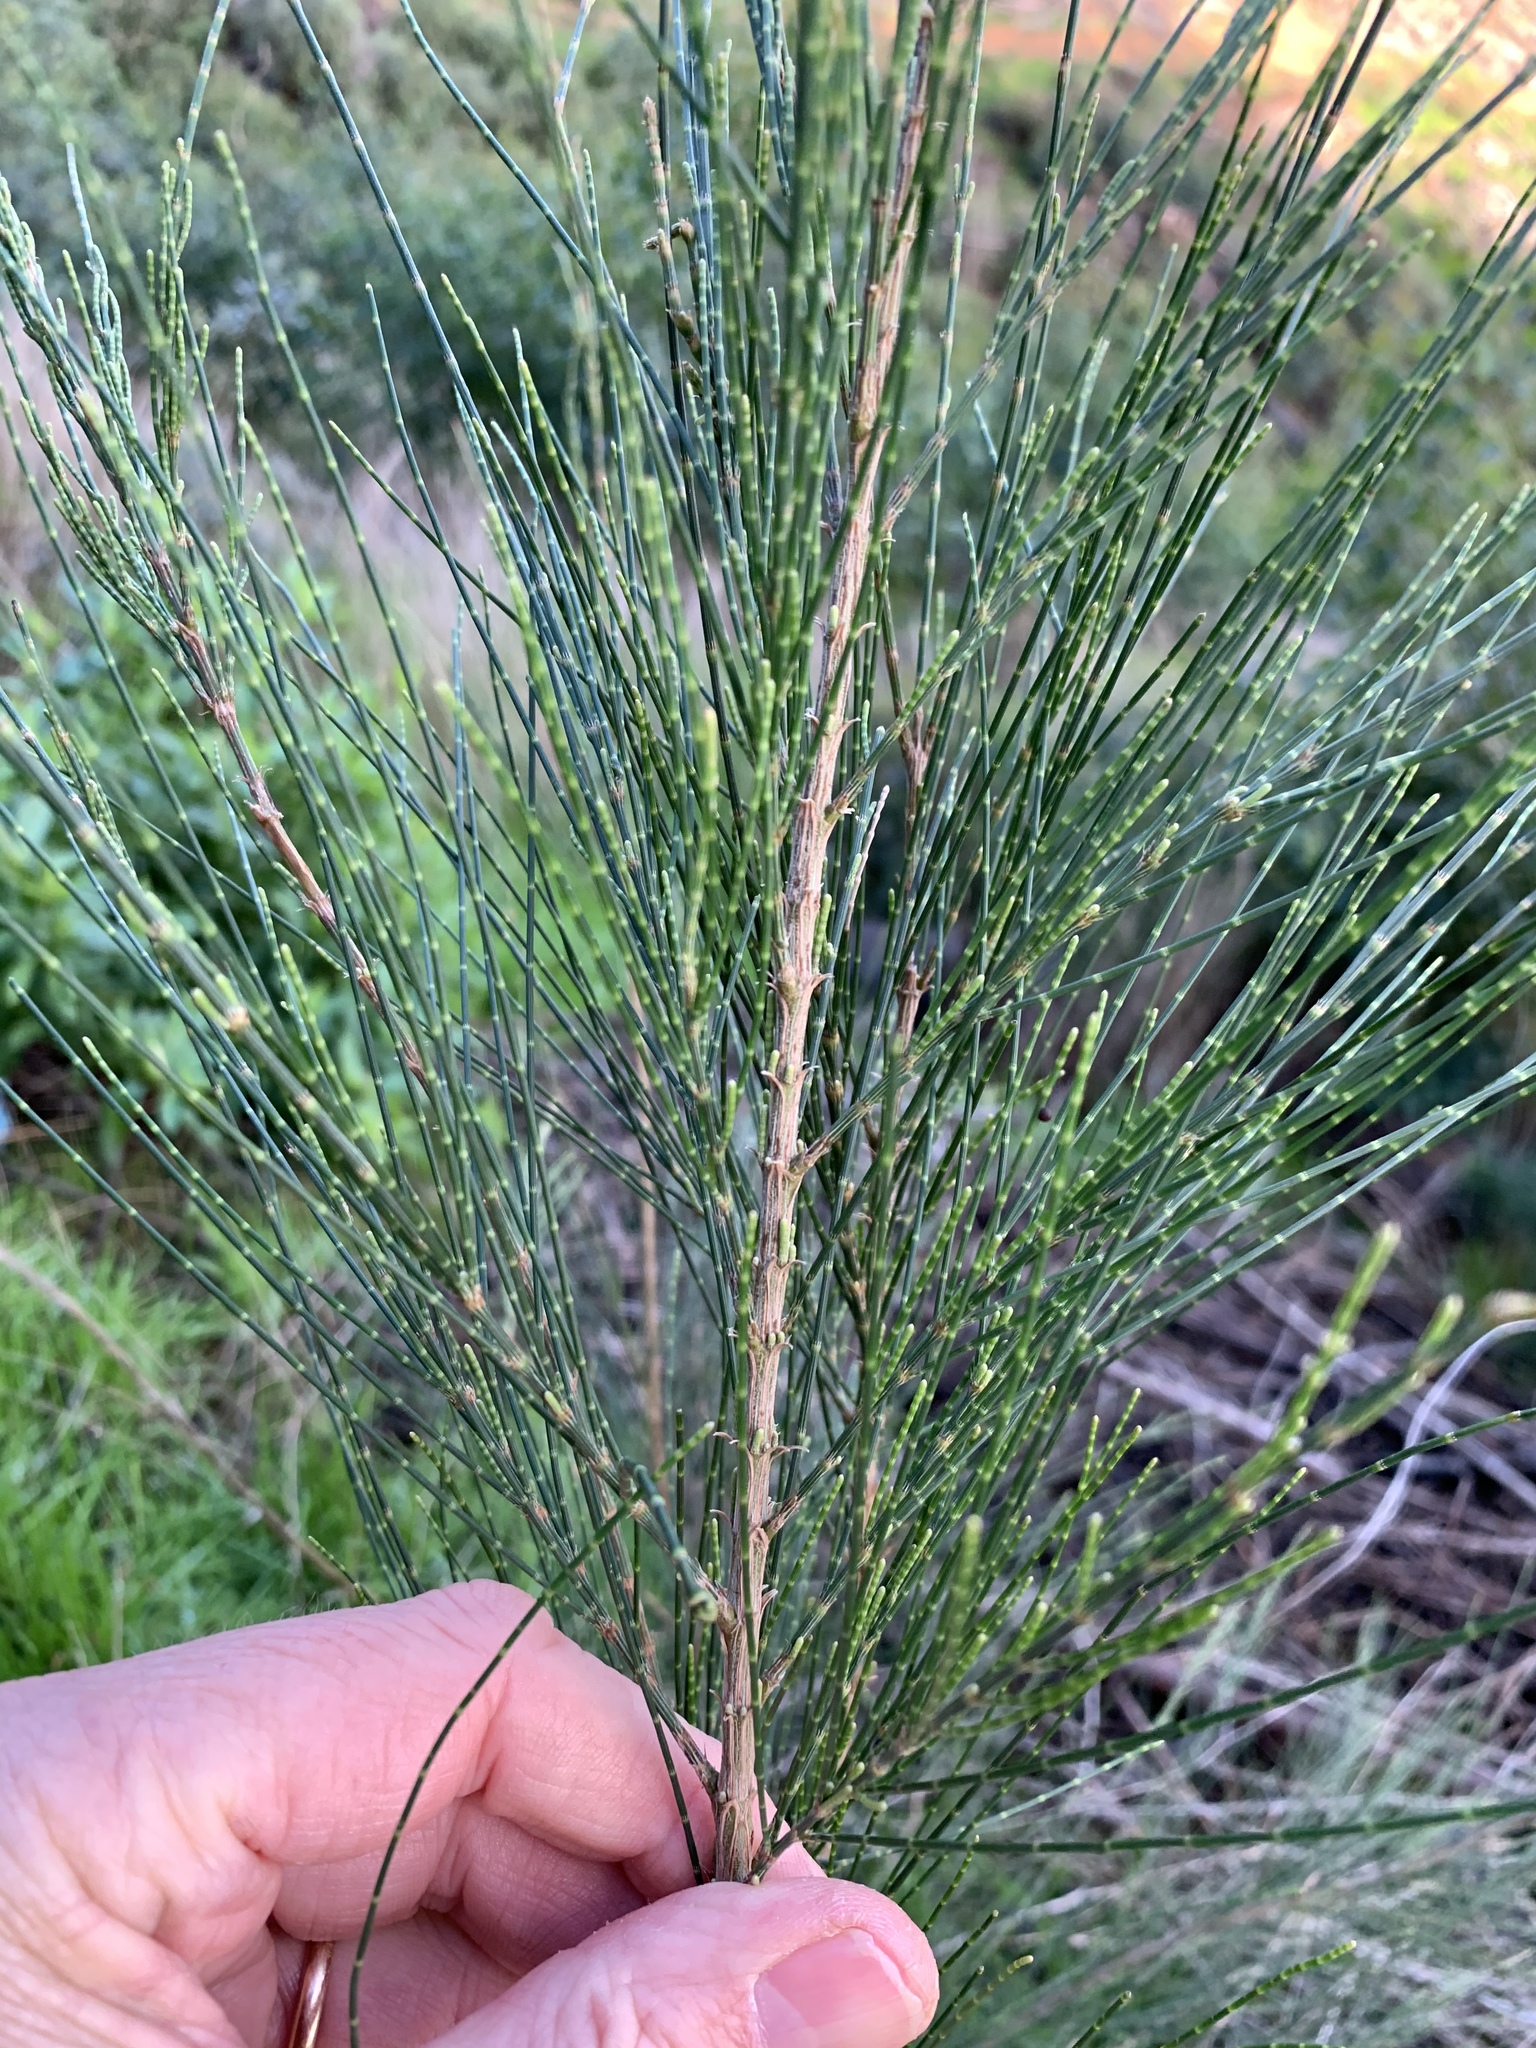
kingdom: Plantae
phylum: Tracheophyta
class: Magnoliopsida
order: Fagales
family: Casuarinaceae
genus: Casuarina
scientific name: Casuarina cunninghamiana
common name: River sheoak
